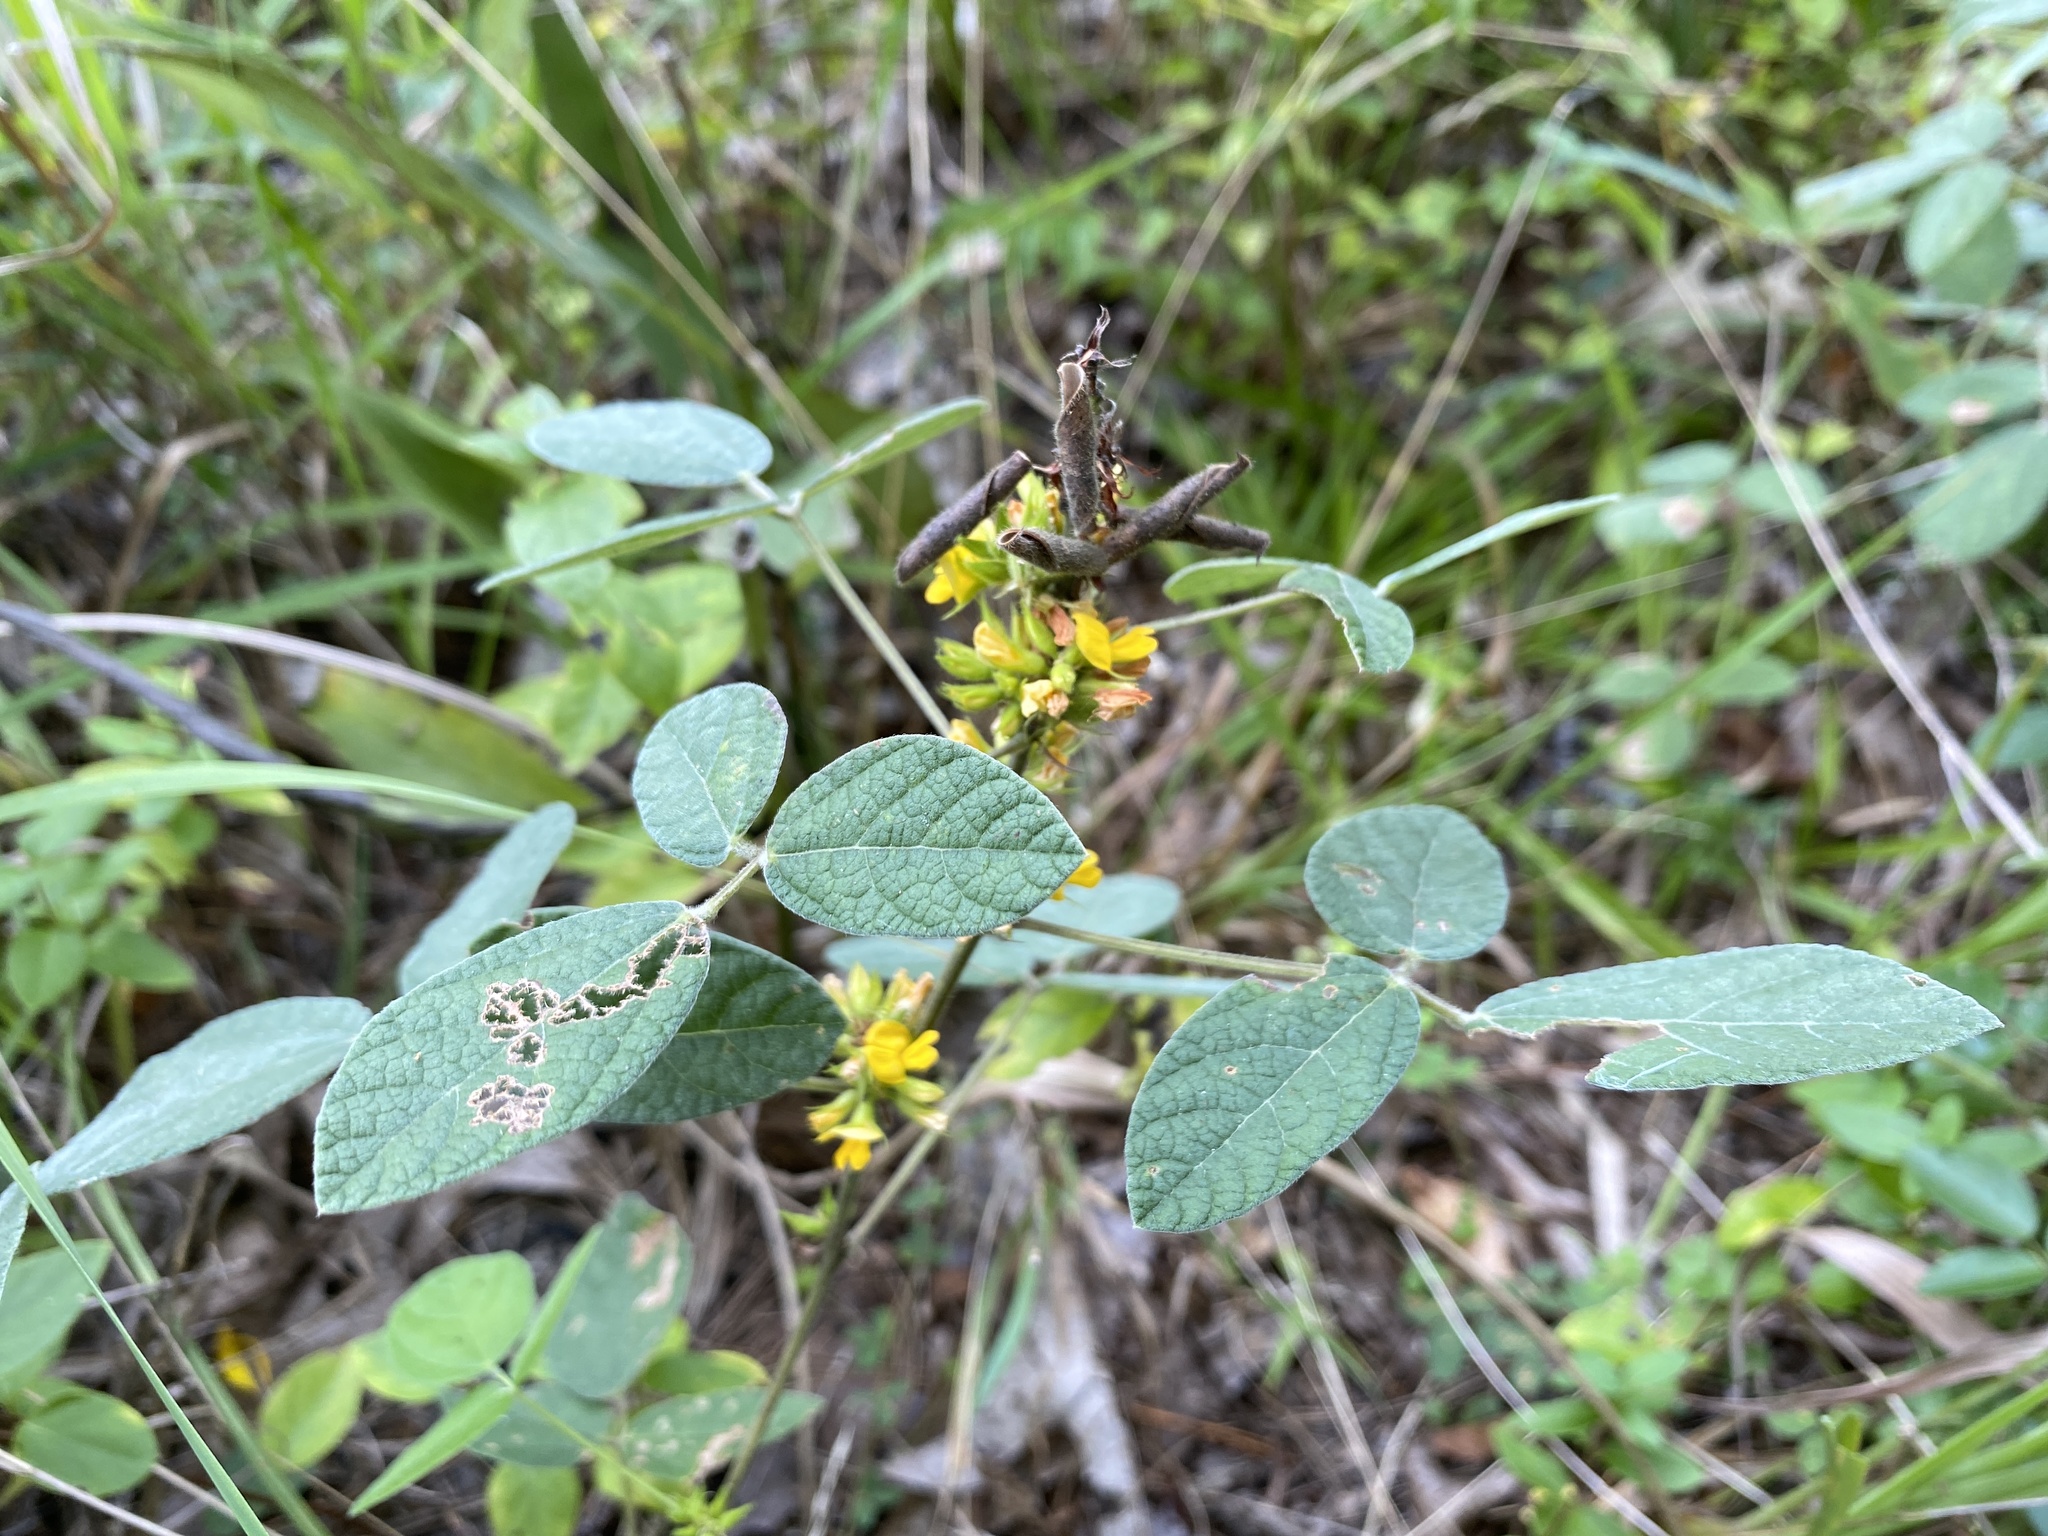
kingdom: Plantae
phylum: Tracheophyta
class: Magnoliopsida
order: Fabales
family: Fabaceae
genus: Rhynchosia
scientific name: Rhynchosia tomentosa
